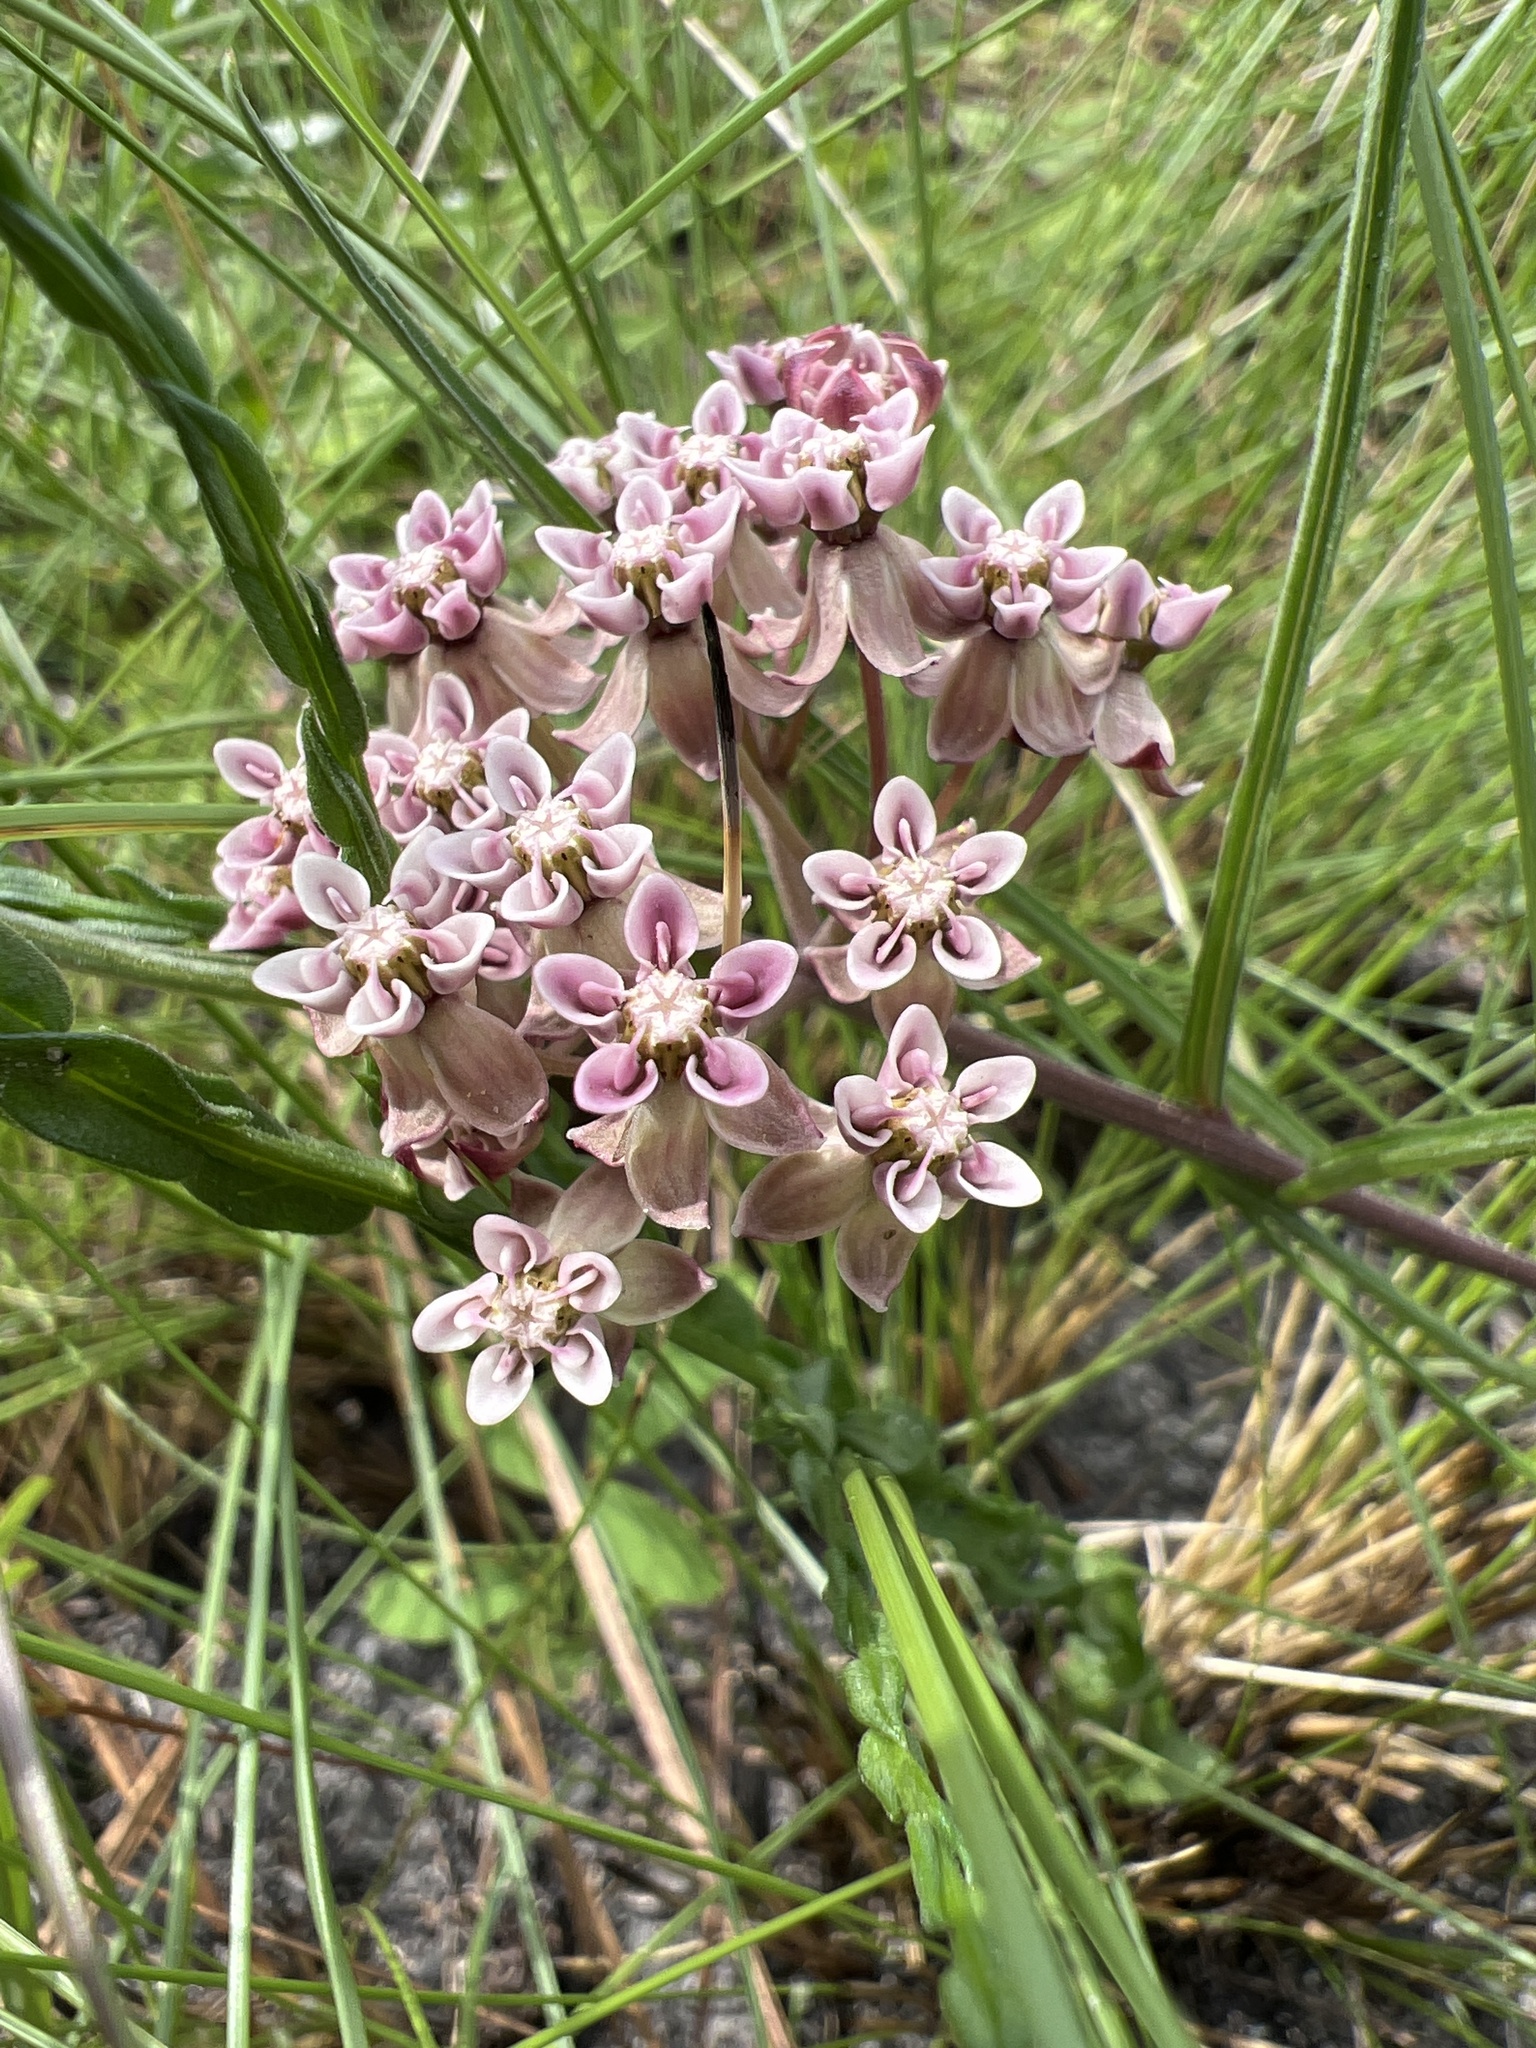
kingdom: Plantae
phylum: Tracheophyta
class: Magnoliopsida
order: Gentianales
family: Apocynaceae
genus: Asclepias
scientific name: Asclepias michauxii
